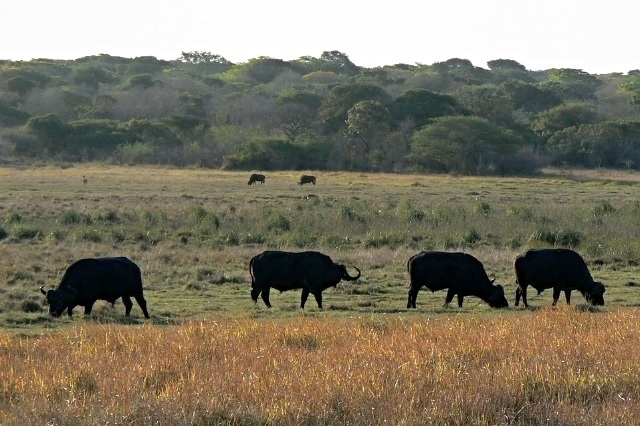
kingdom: Animalia
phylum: Chordata
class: Mammalia
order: Artiodactyla
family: Bovidae
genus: Syncerus
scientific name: Syncerus caffer
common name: African buffalo
